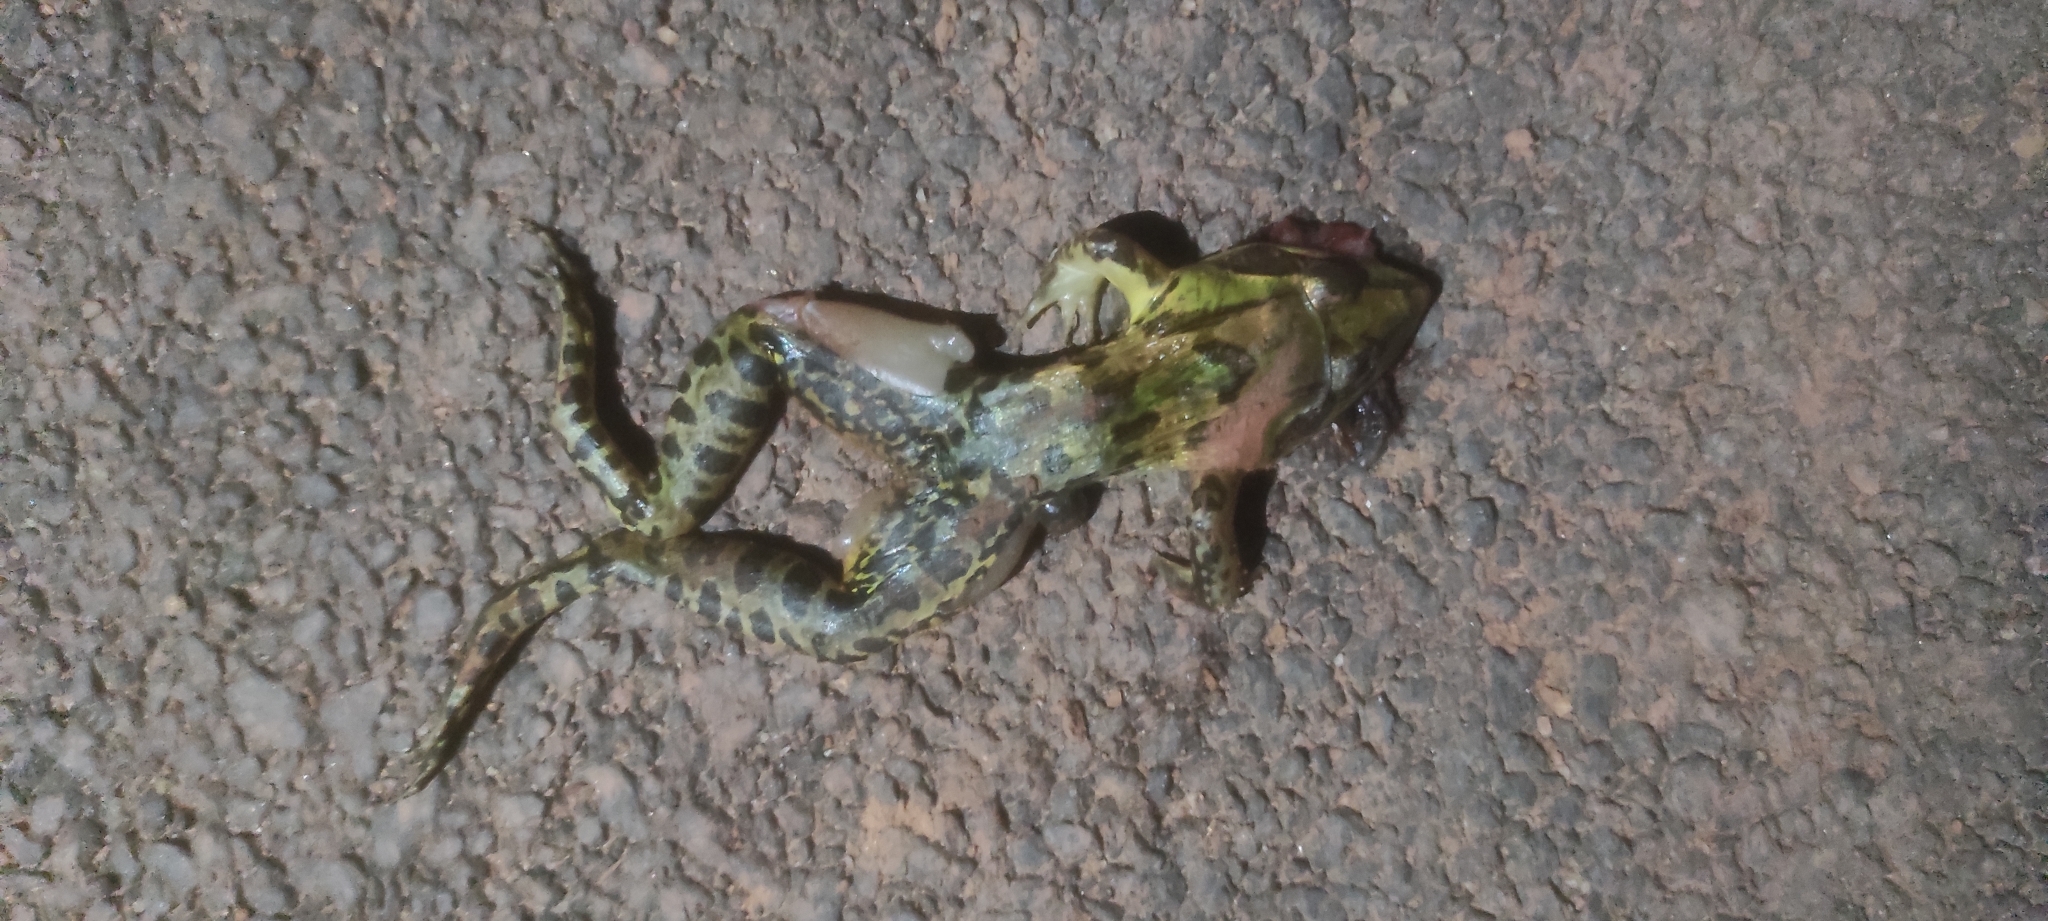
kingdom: Animalia
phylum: Chordata
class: Amphibia
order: Anura
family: Dicroglossidae
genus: Hoplobatrachus
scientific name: Hoplobatrachus tigerinus
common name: Indian bullfrog
